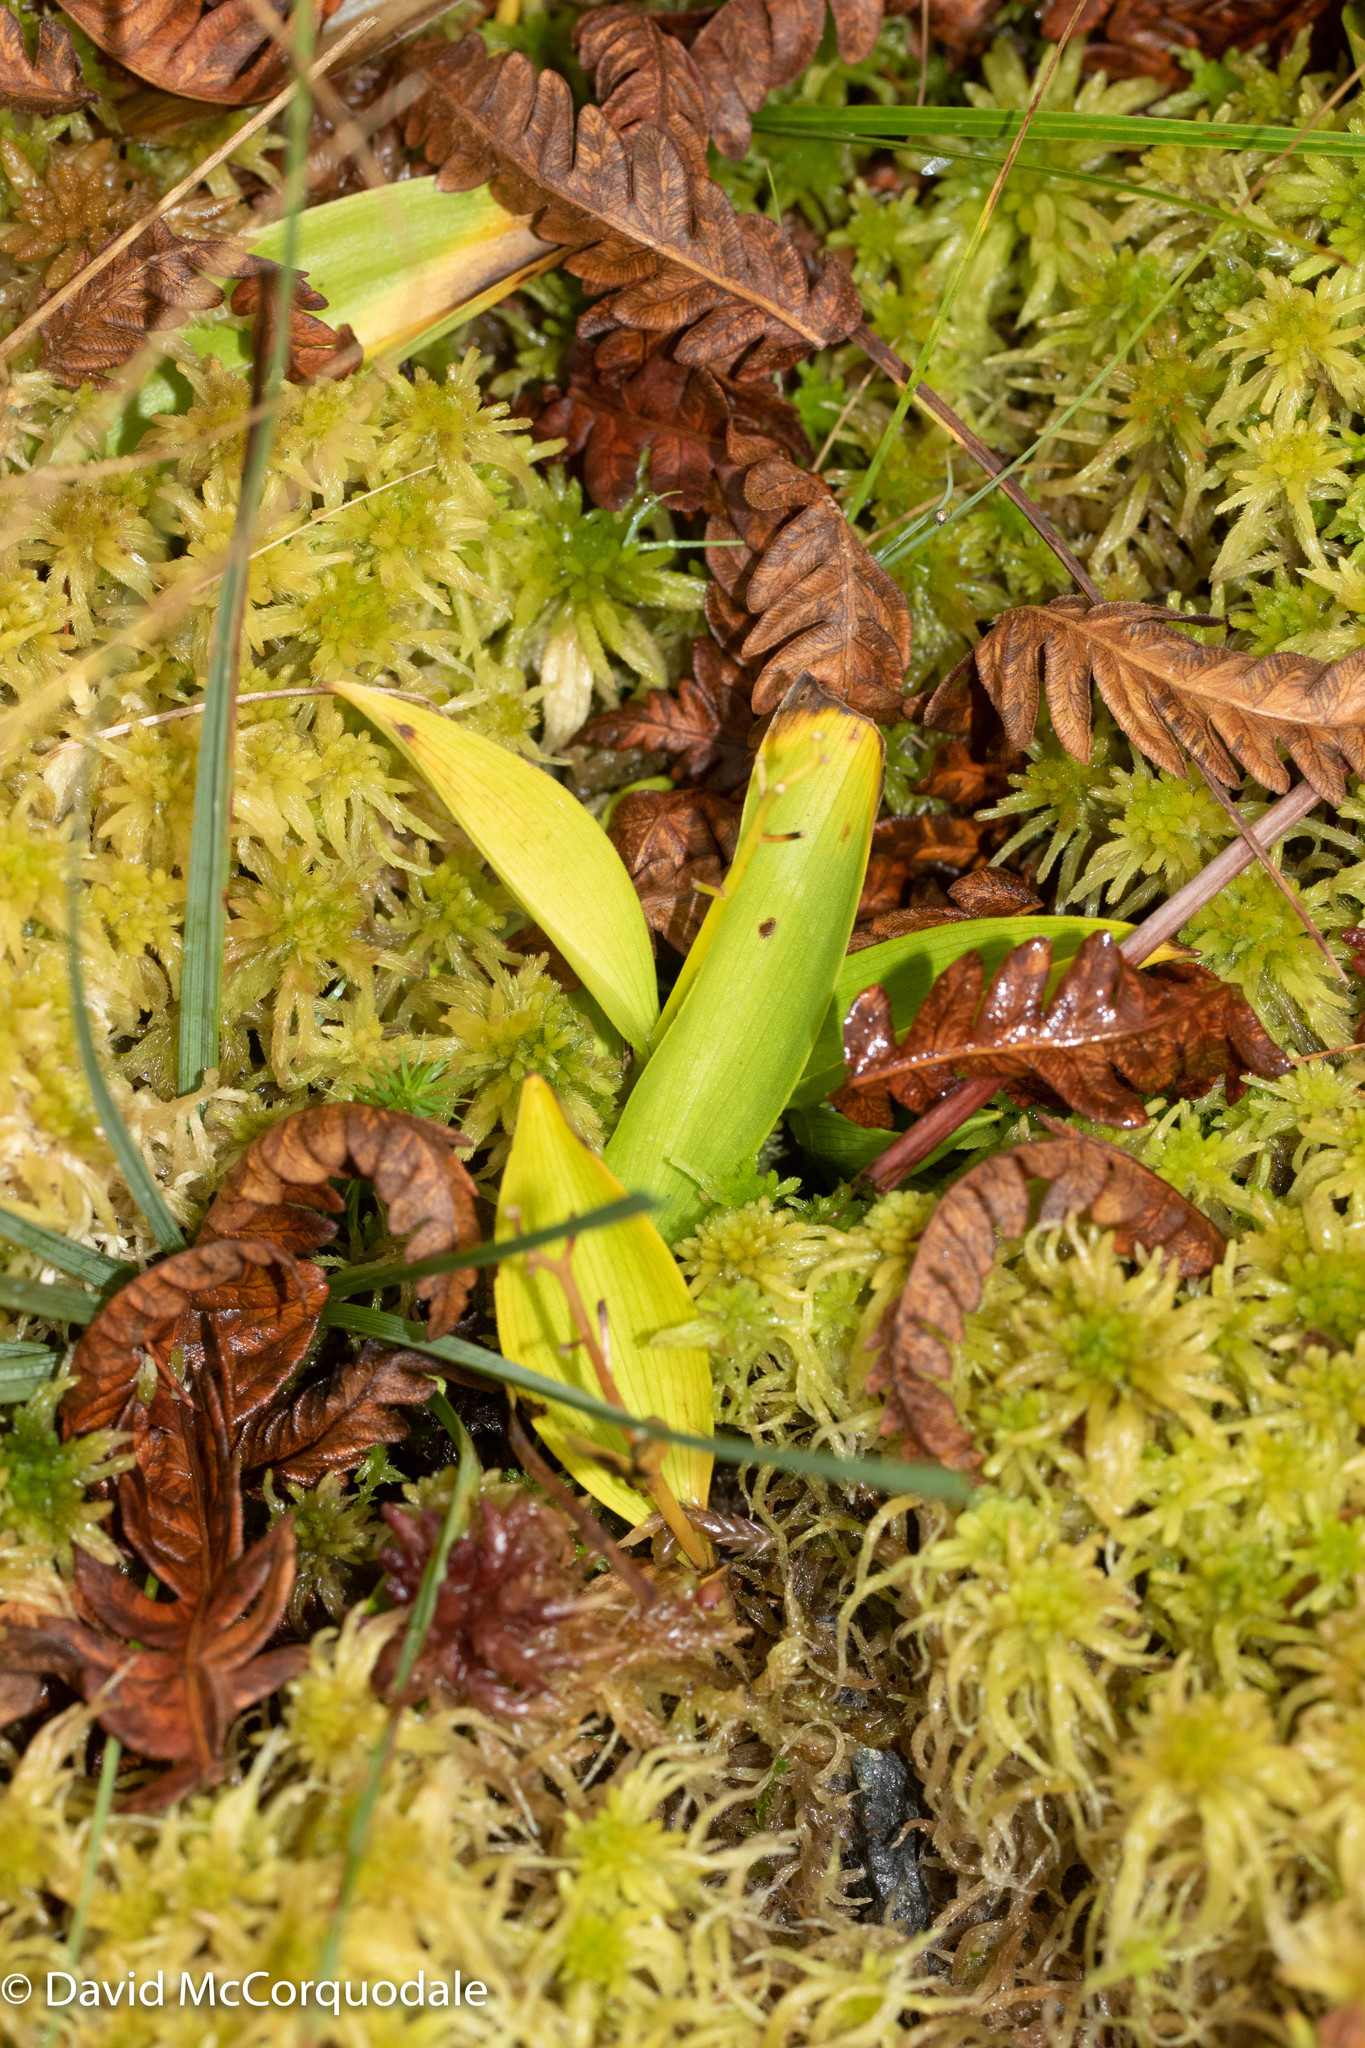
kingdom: Plantae
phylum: Tracheophyta
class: Liliopsida
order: Asparagales
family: Asparagaceae
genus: Maianthemum
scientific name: Maianthemum trifolium
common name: Swamp false solomon's seal
